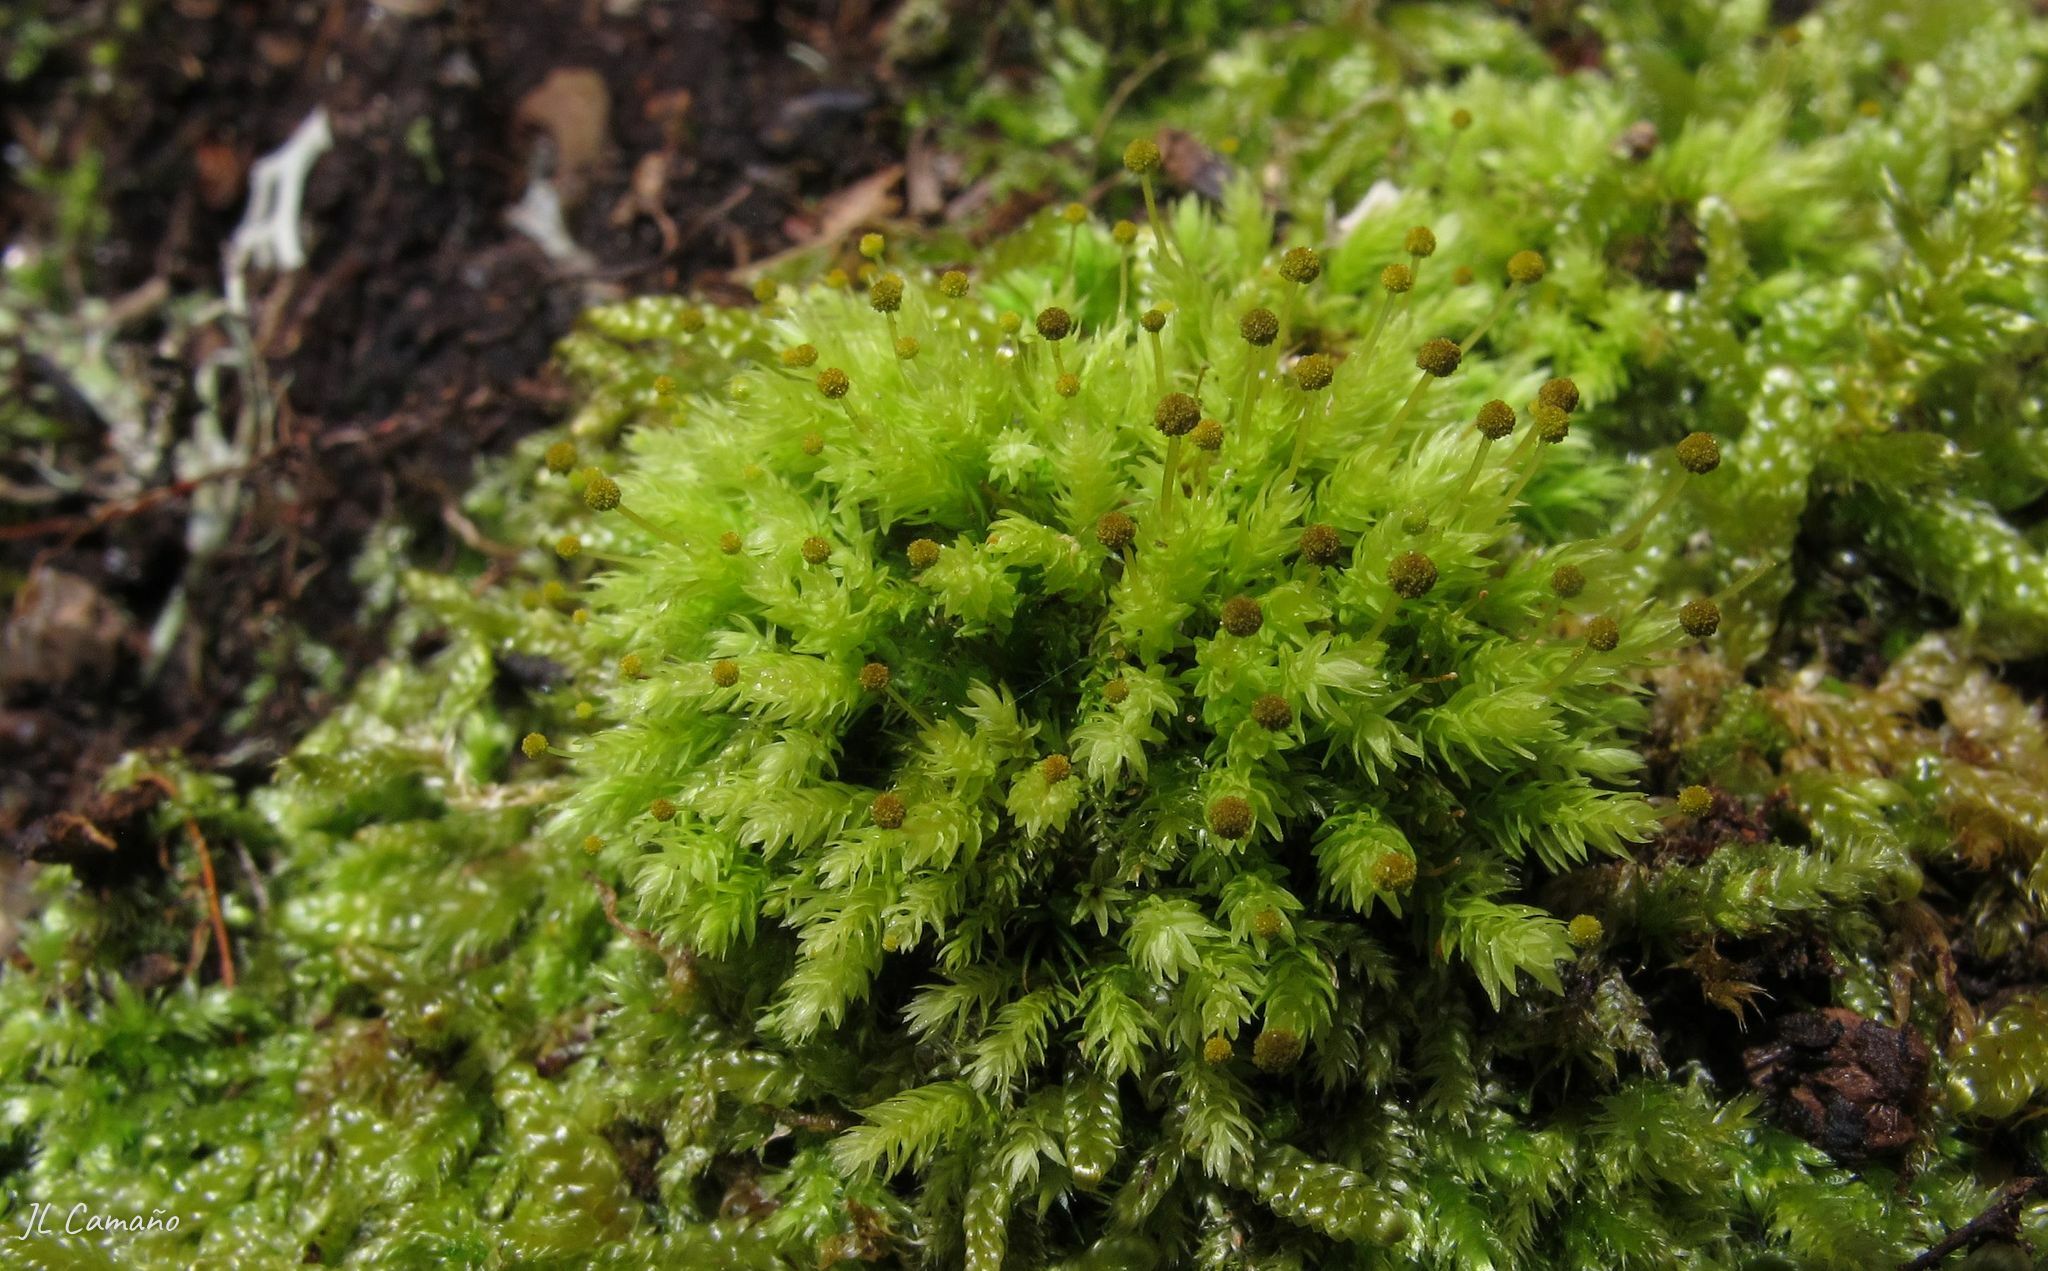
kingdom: Plantae
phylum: Bryophyta
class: Bryopsida
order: Aulacomniales
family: Aulacomniaceae
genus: Aulacomnium
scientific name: Aulacomnium androgynum
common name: Little groove moss
